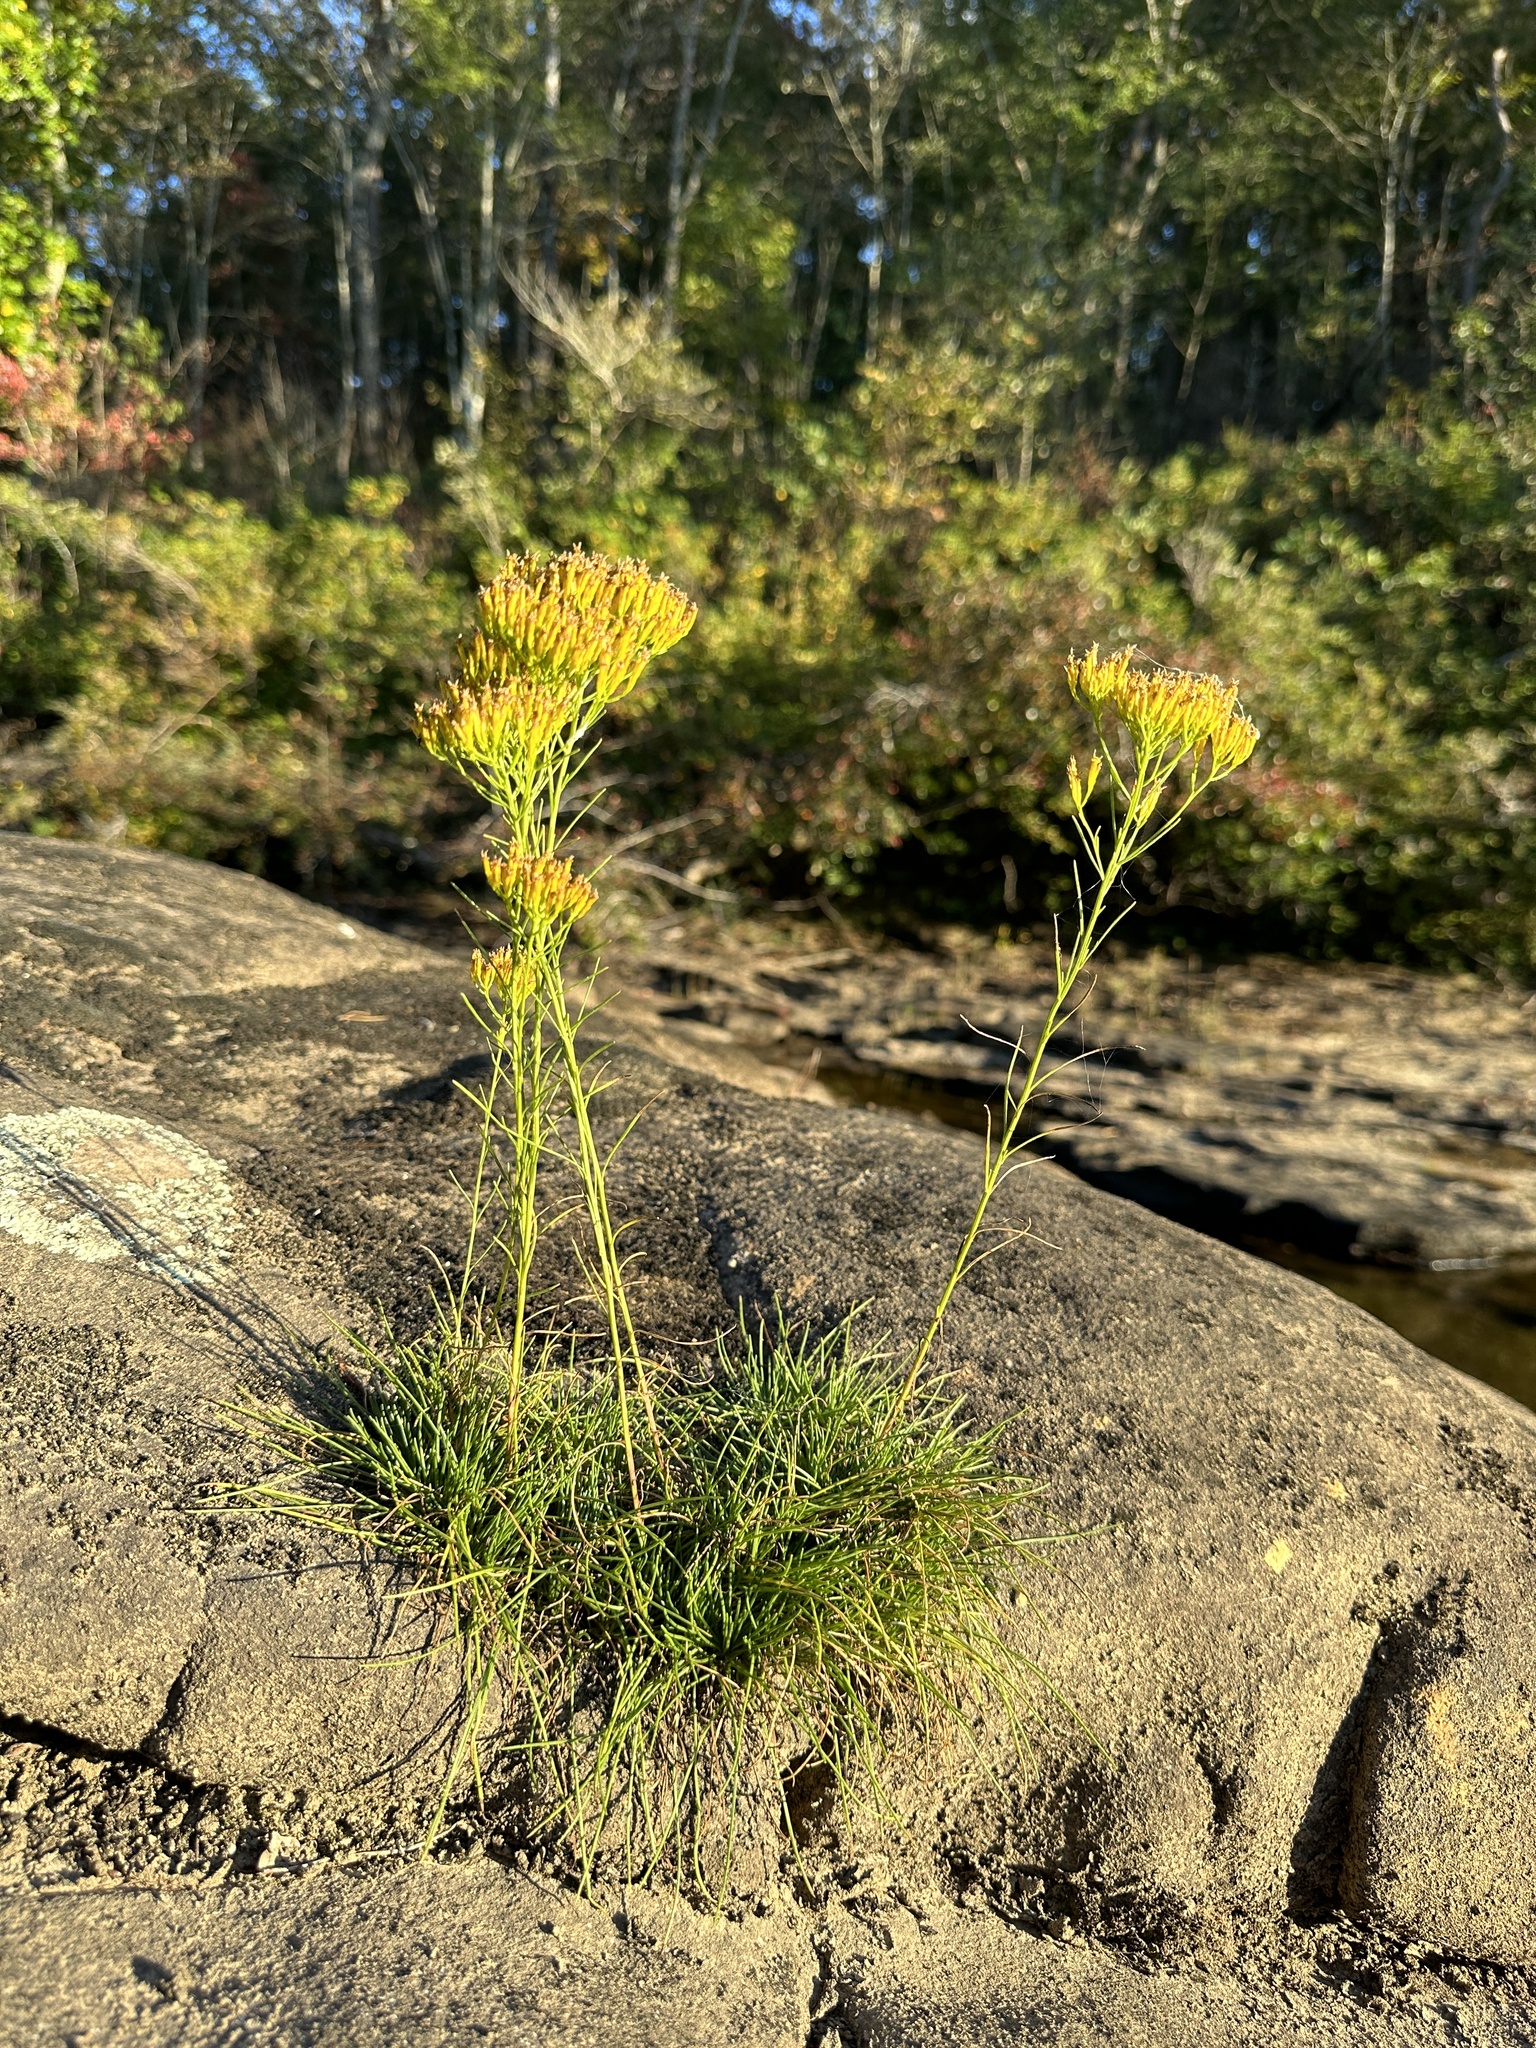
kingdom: Plantae
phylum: Tracheophyta
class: Magnoliopsida
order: Asterales
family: Asteraceae
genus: Bigelowia
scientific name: Bigelowia nuttallii
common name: Nuttall's rayless-goldenrod
